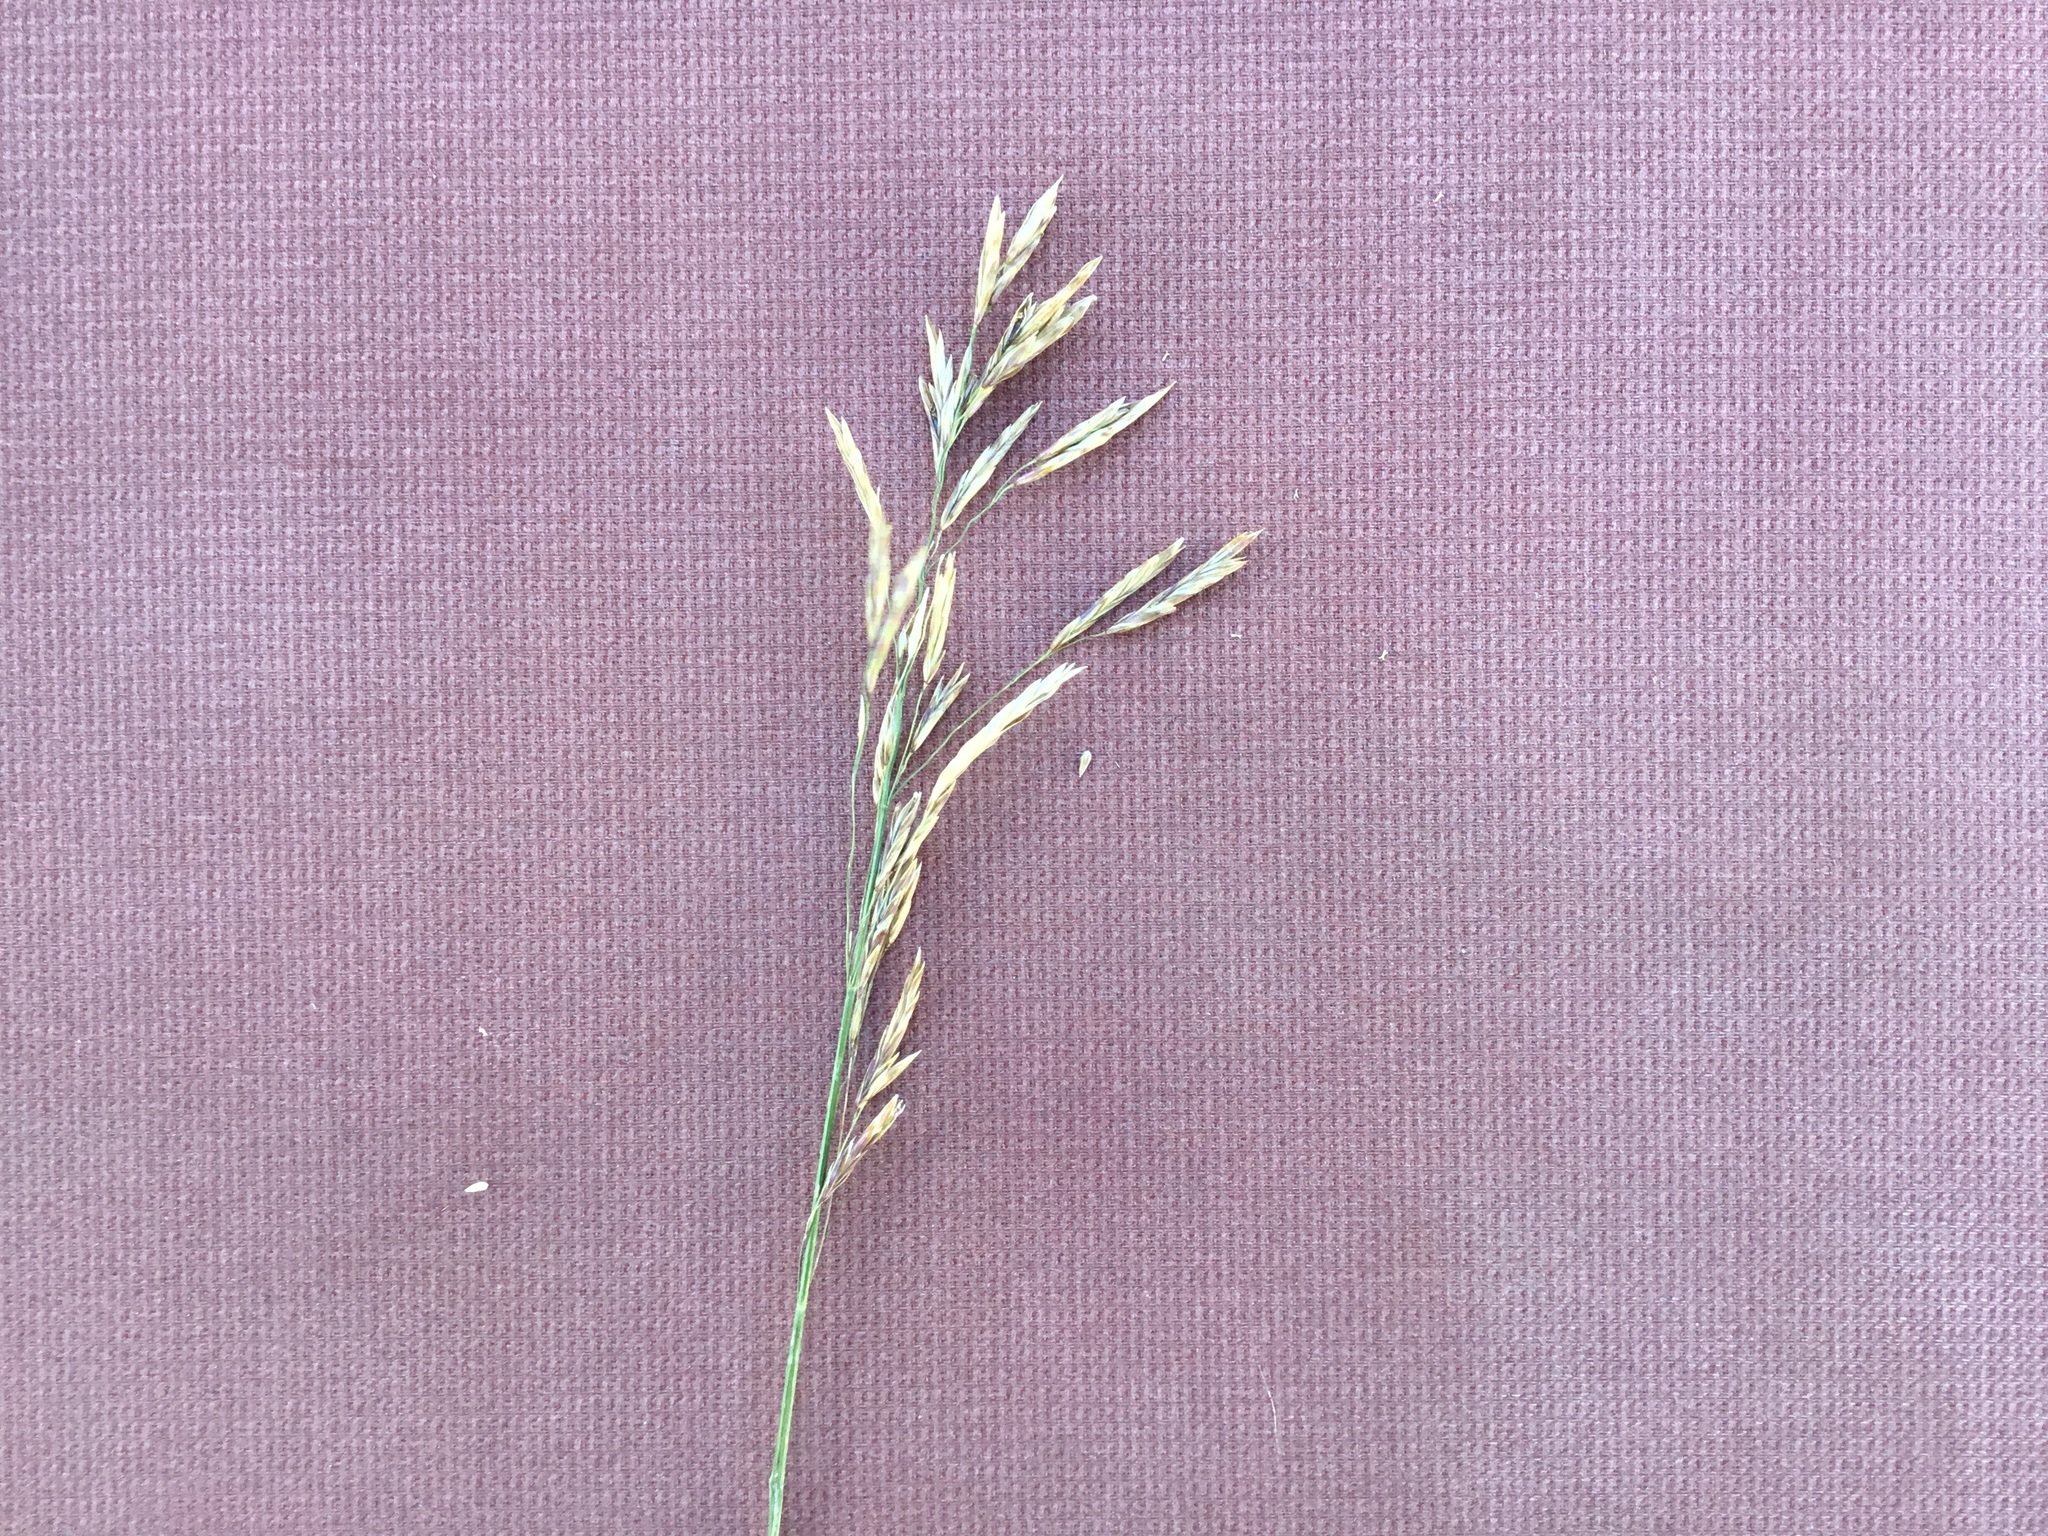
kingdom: Plantae
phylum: Tracheophyta
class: Liliopsida
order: Poales
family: Poaceae
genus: Bromus
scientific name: Bromus inermis
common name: Smooth brome
